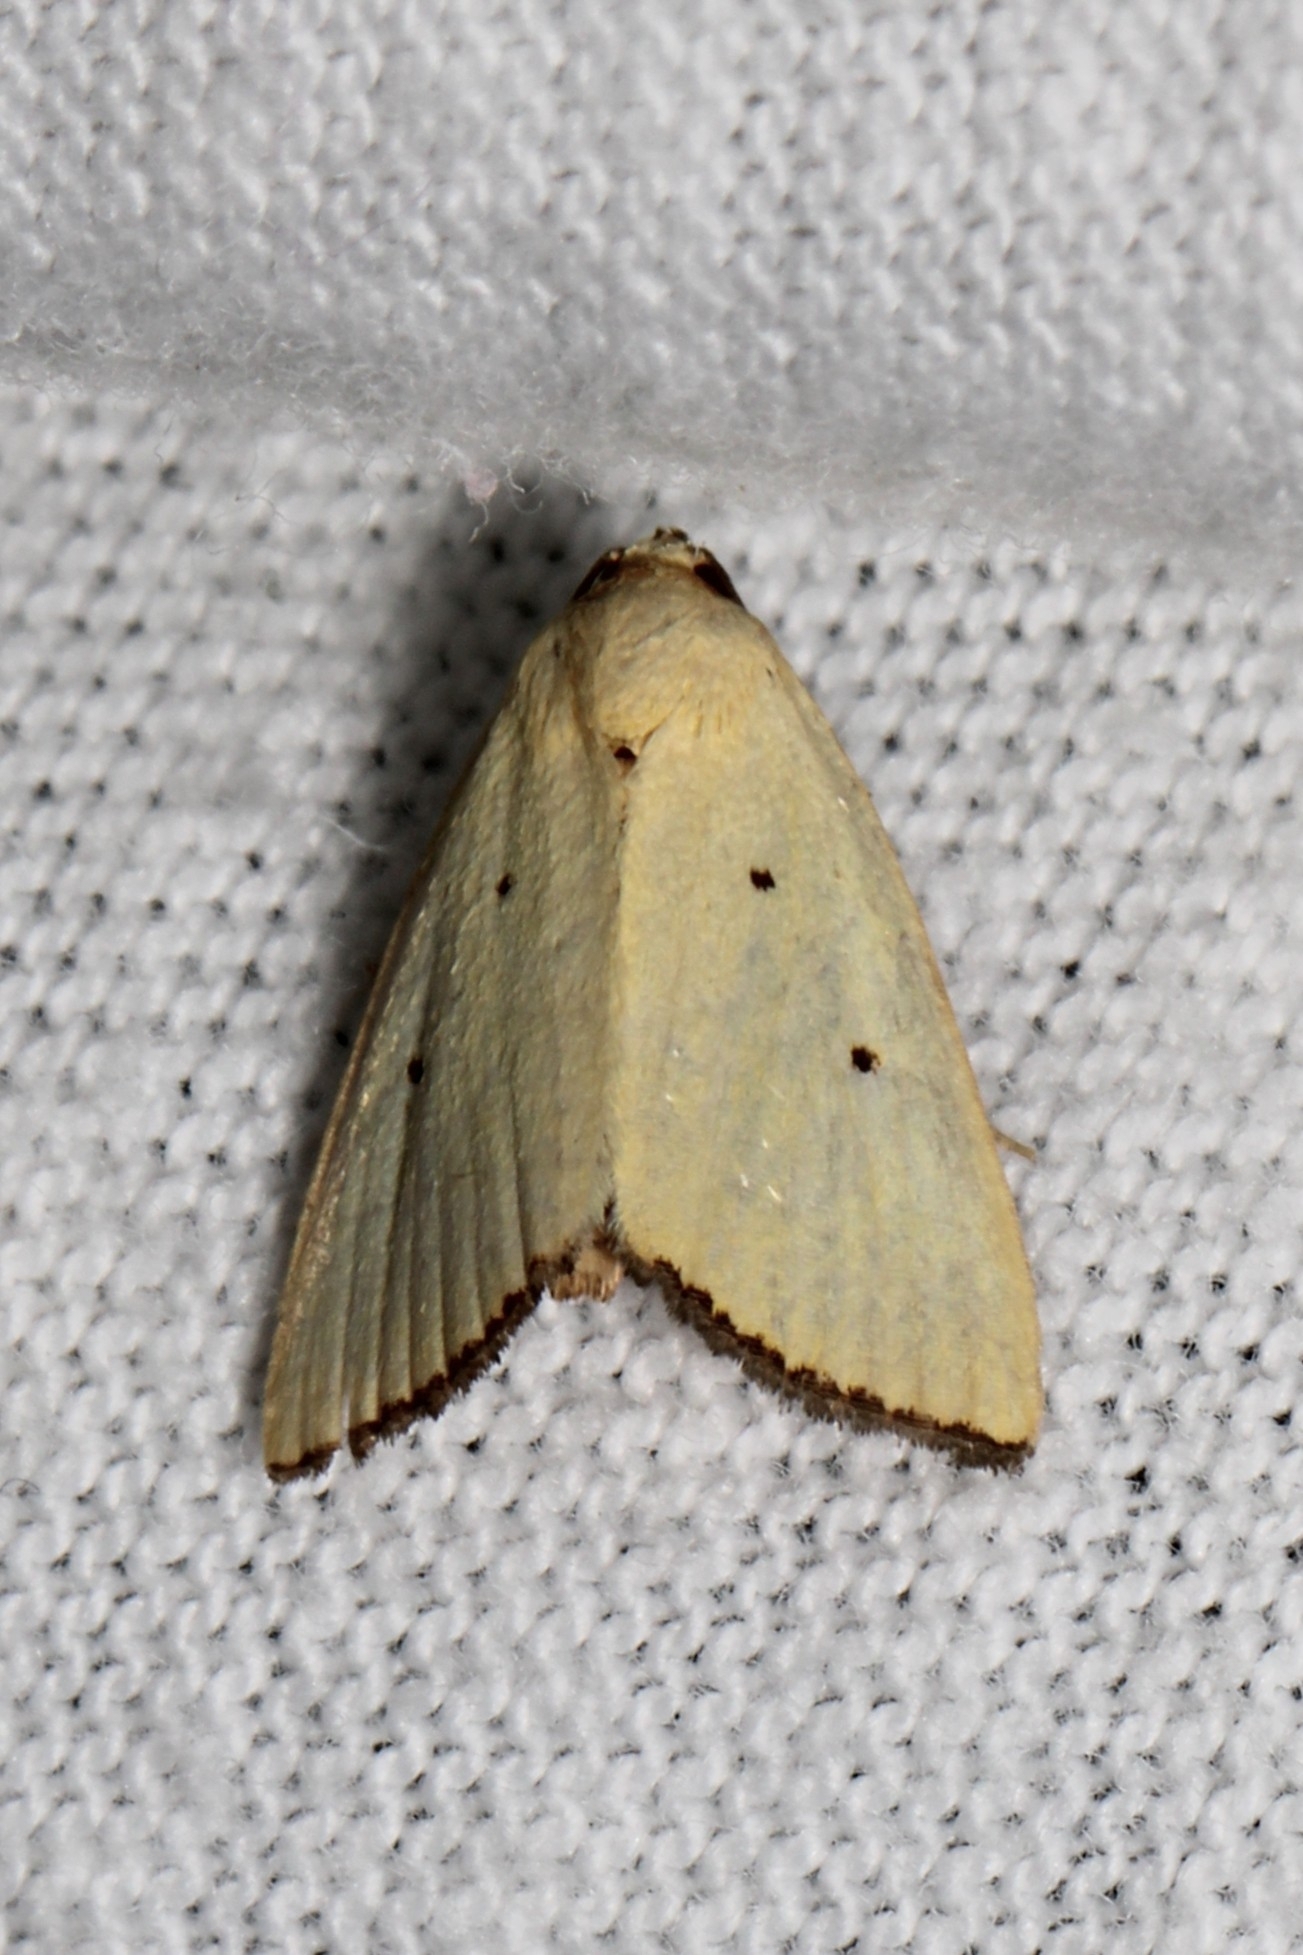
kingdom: Animalia
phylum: Arthropoda
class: Insecta
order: Lepidoptera
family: Noctuidae
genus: Marimatha
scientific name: Marimatha nigrofimbria
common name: Black-bordered lemon moth
